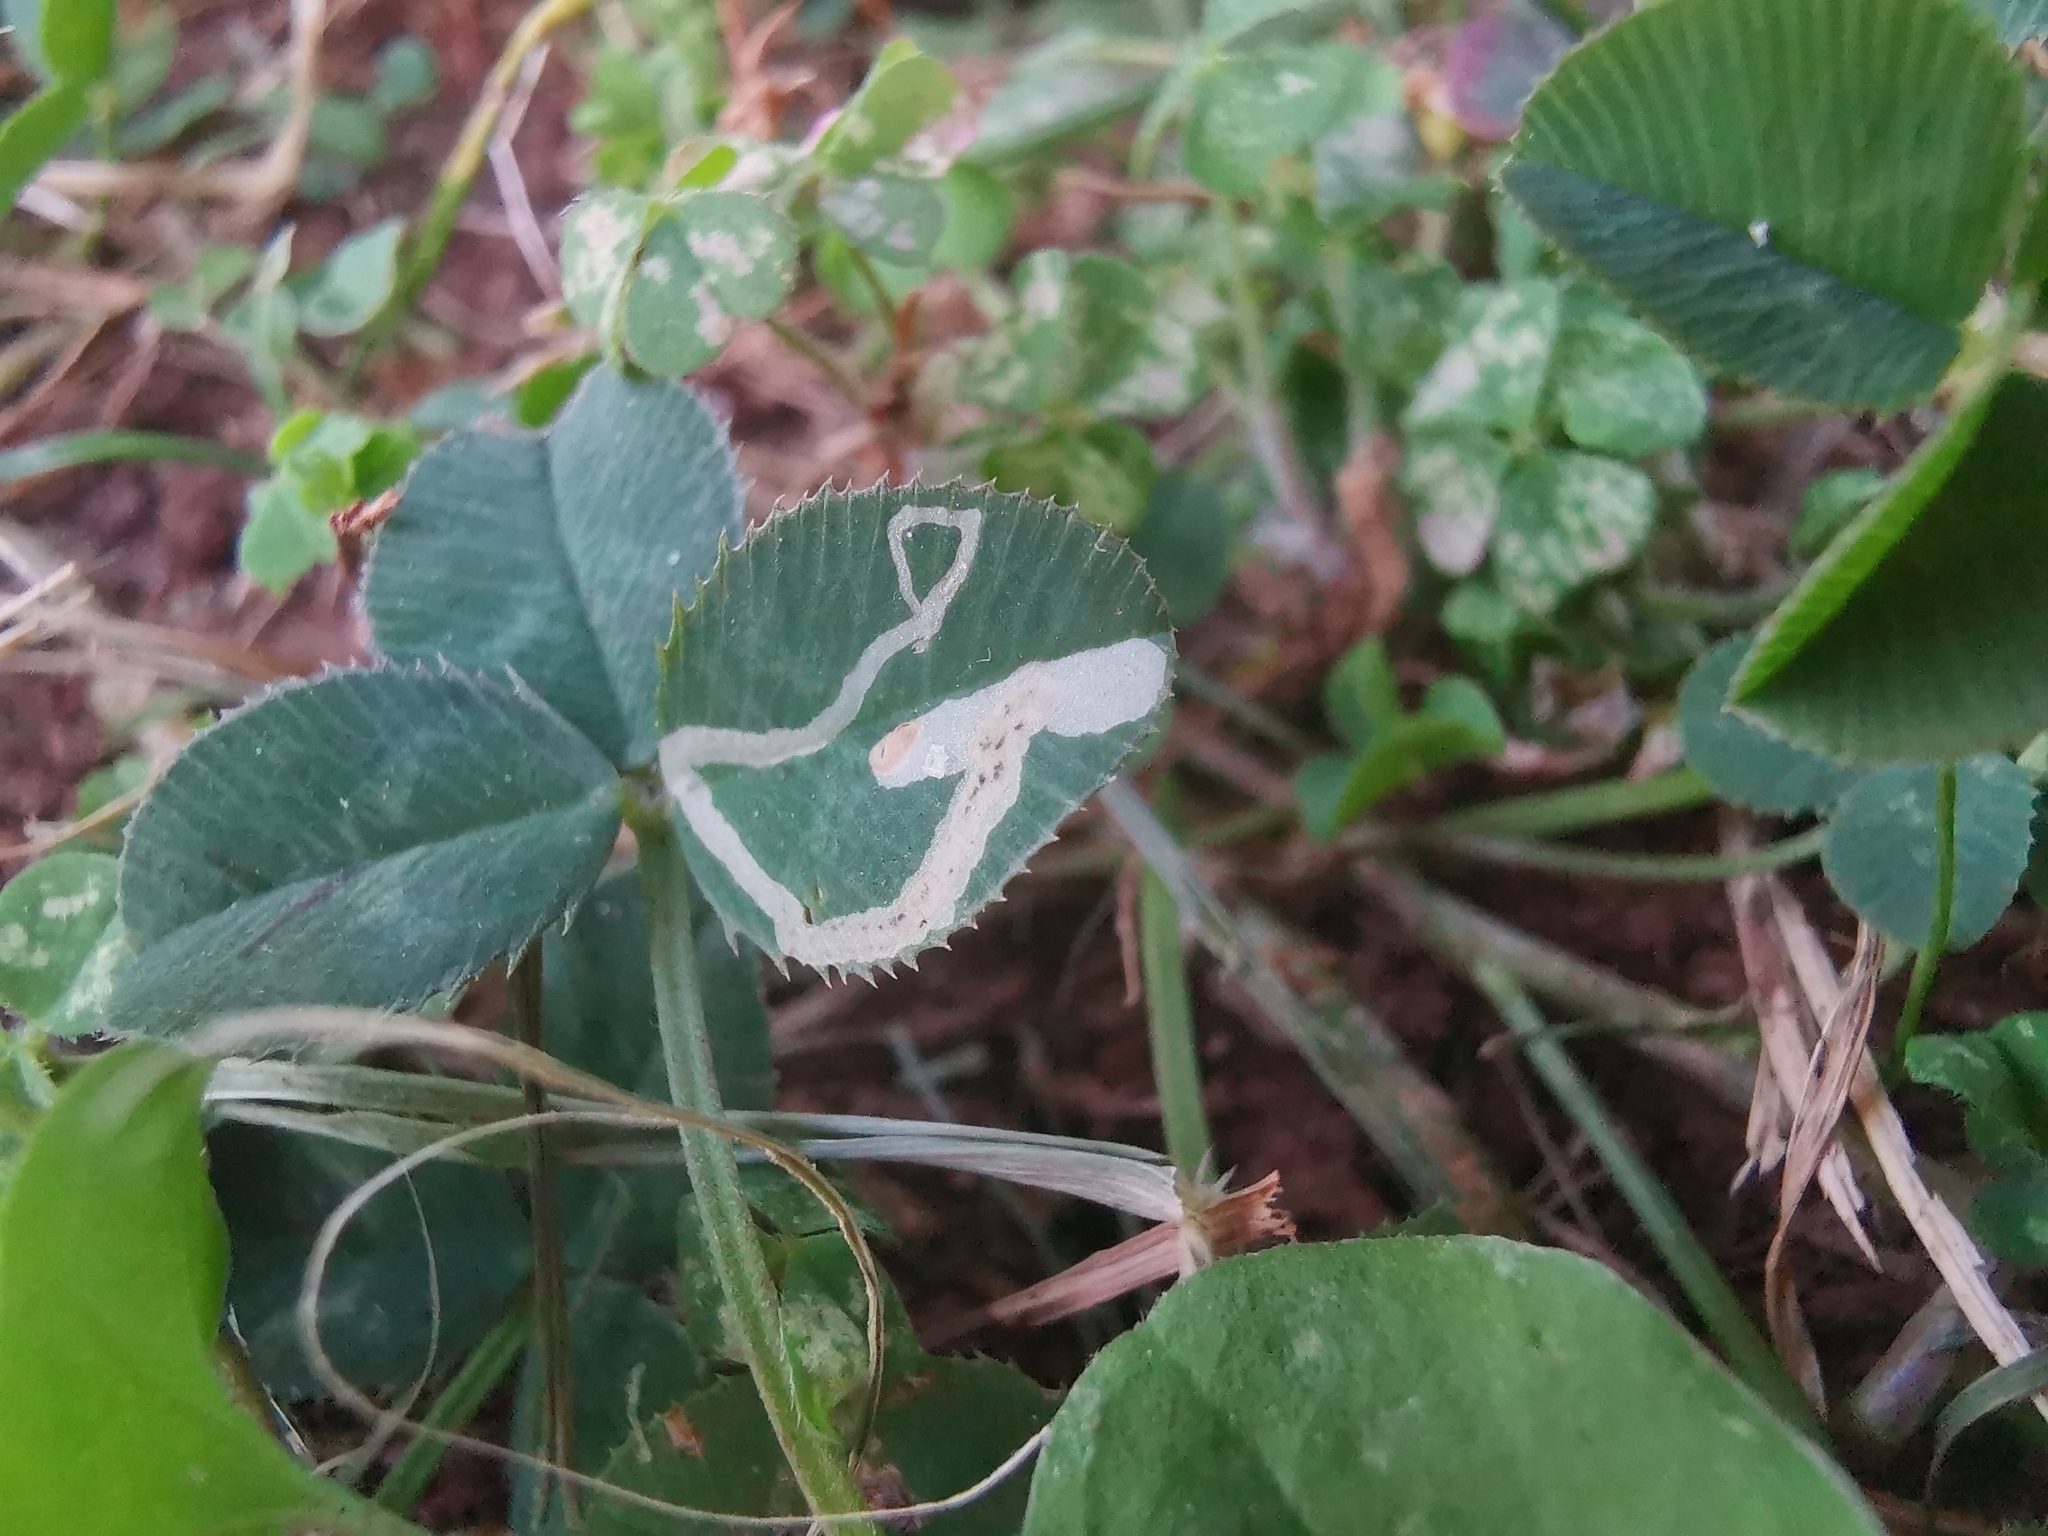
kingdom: Animalia
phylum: Arthropoda
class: Insecta
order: Diptera
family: Agromyzidae
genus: Liriomyza
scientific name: Liriomyza congesta
